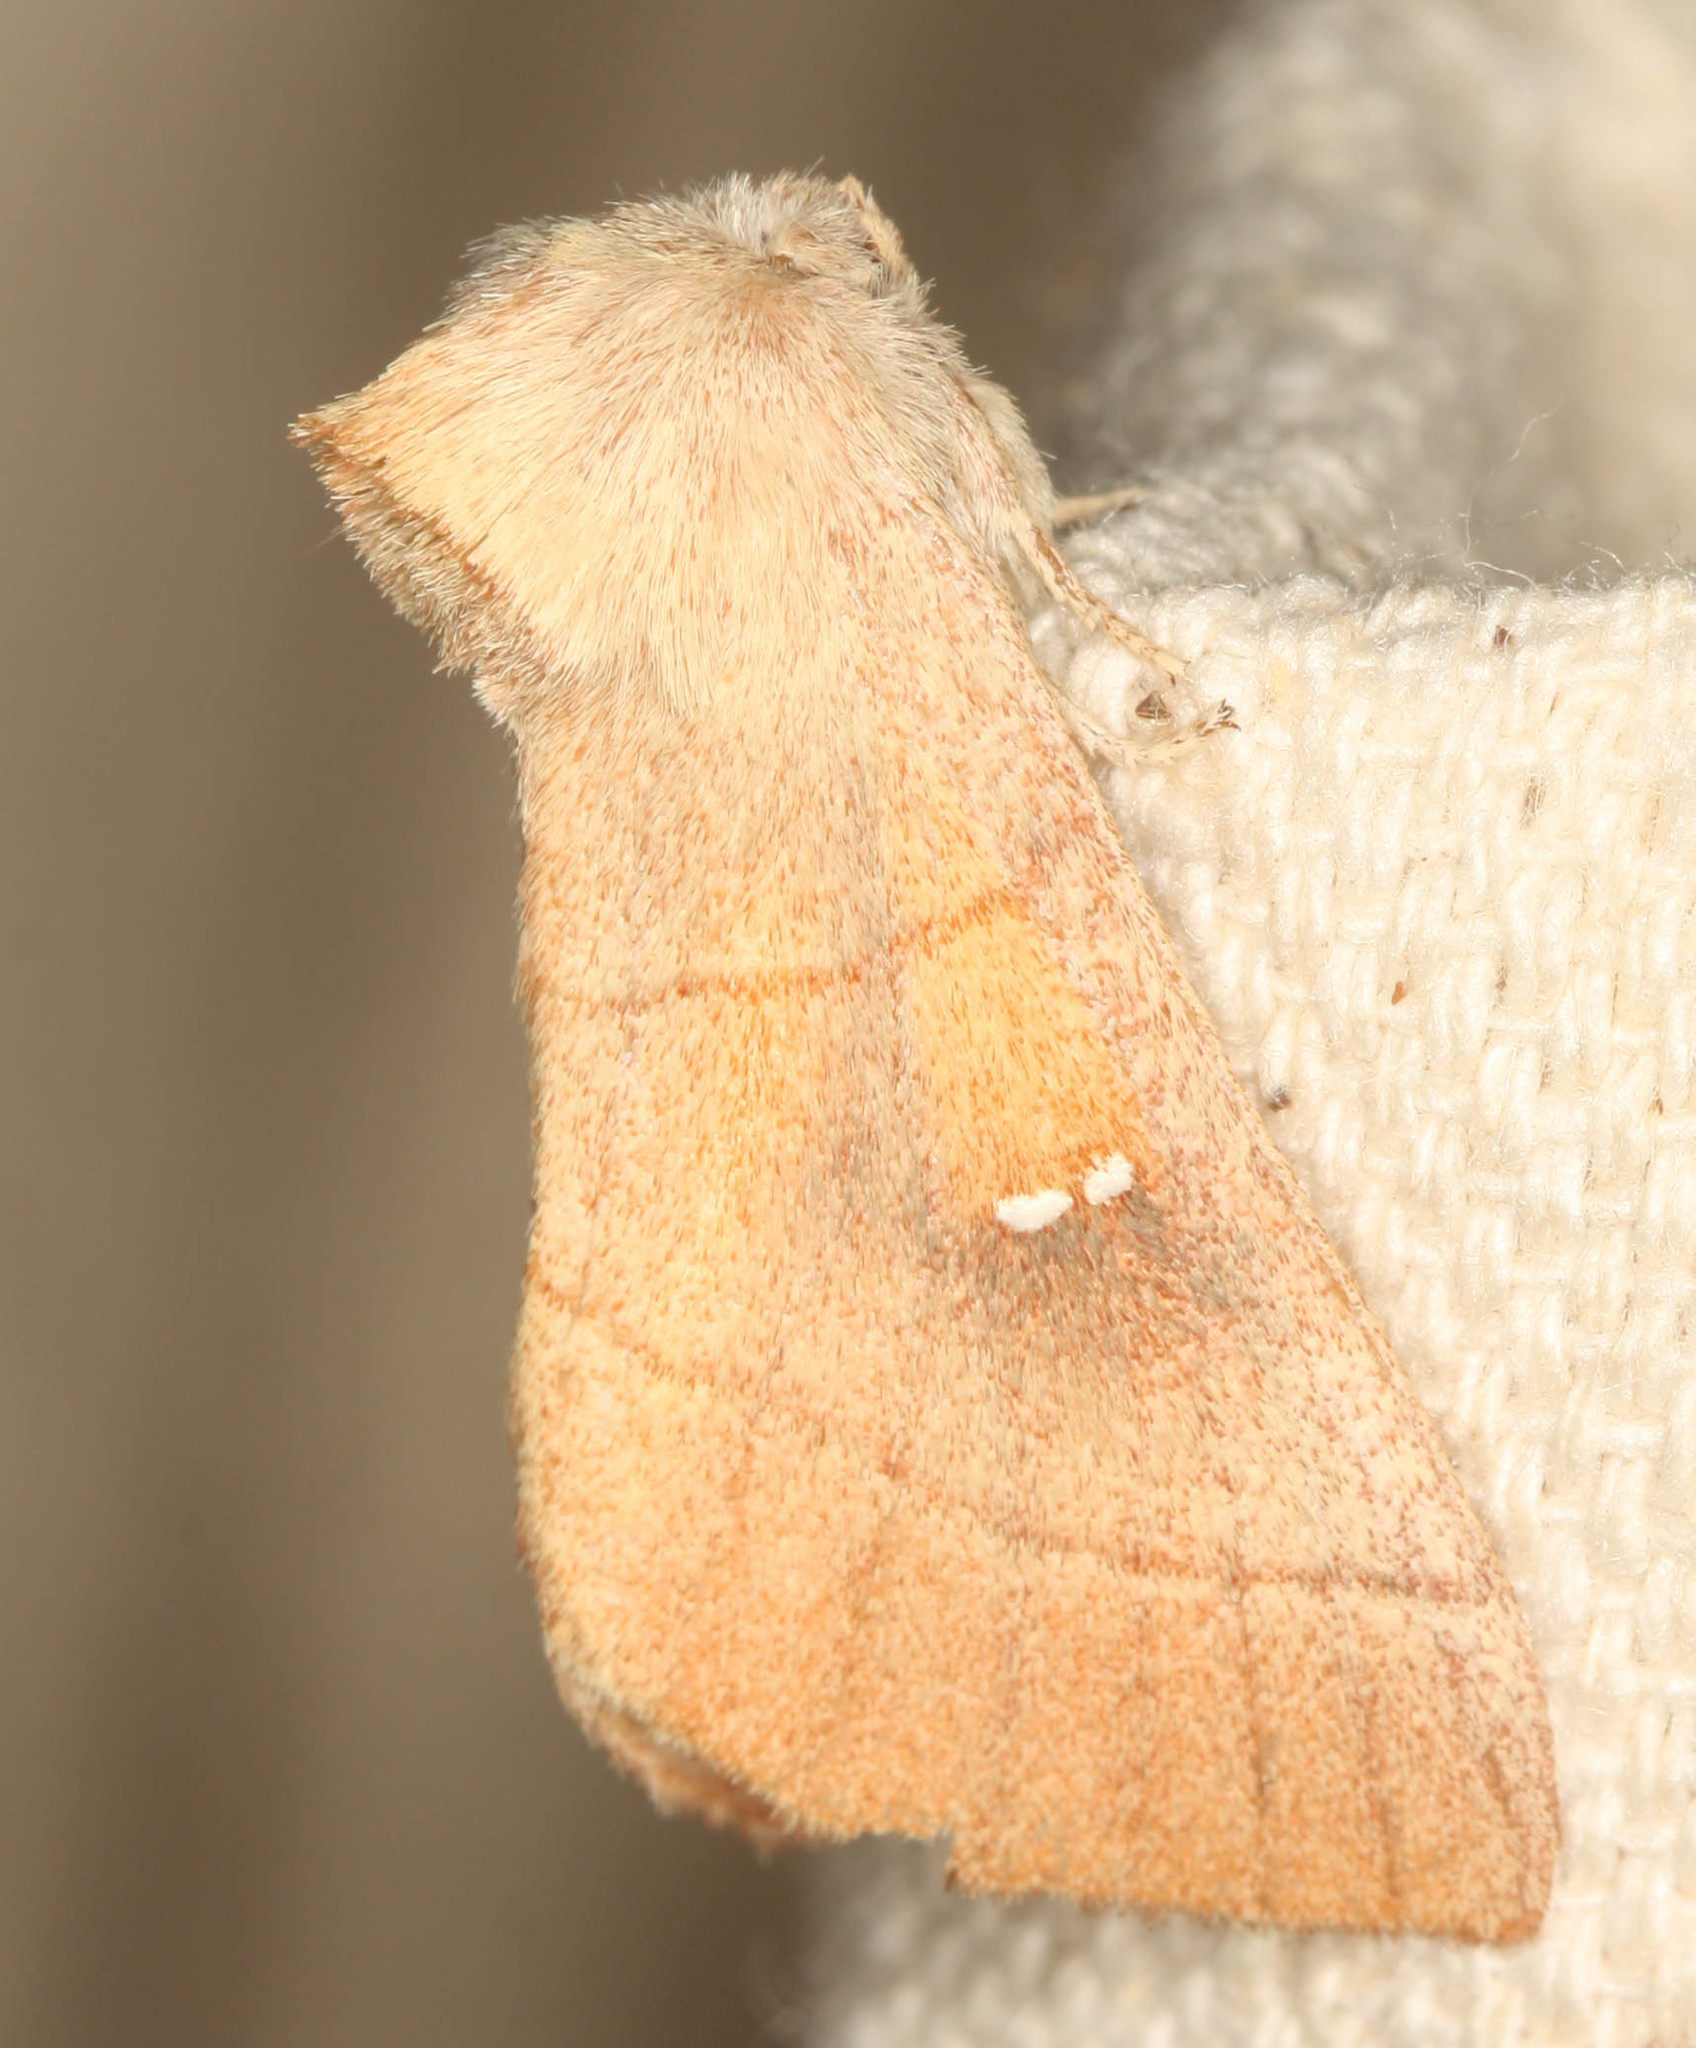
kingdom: Animalia
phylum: Arthropoda
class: Insecta
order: Lepidoptera
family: Notodontidae
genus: Nadata
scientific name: Nadata gibbosa
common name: White-dotted prominent
